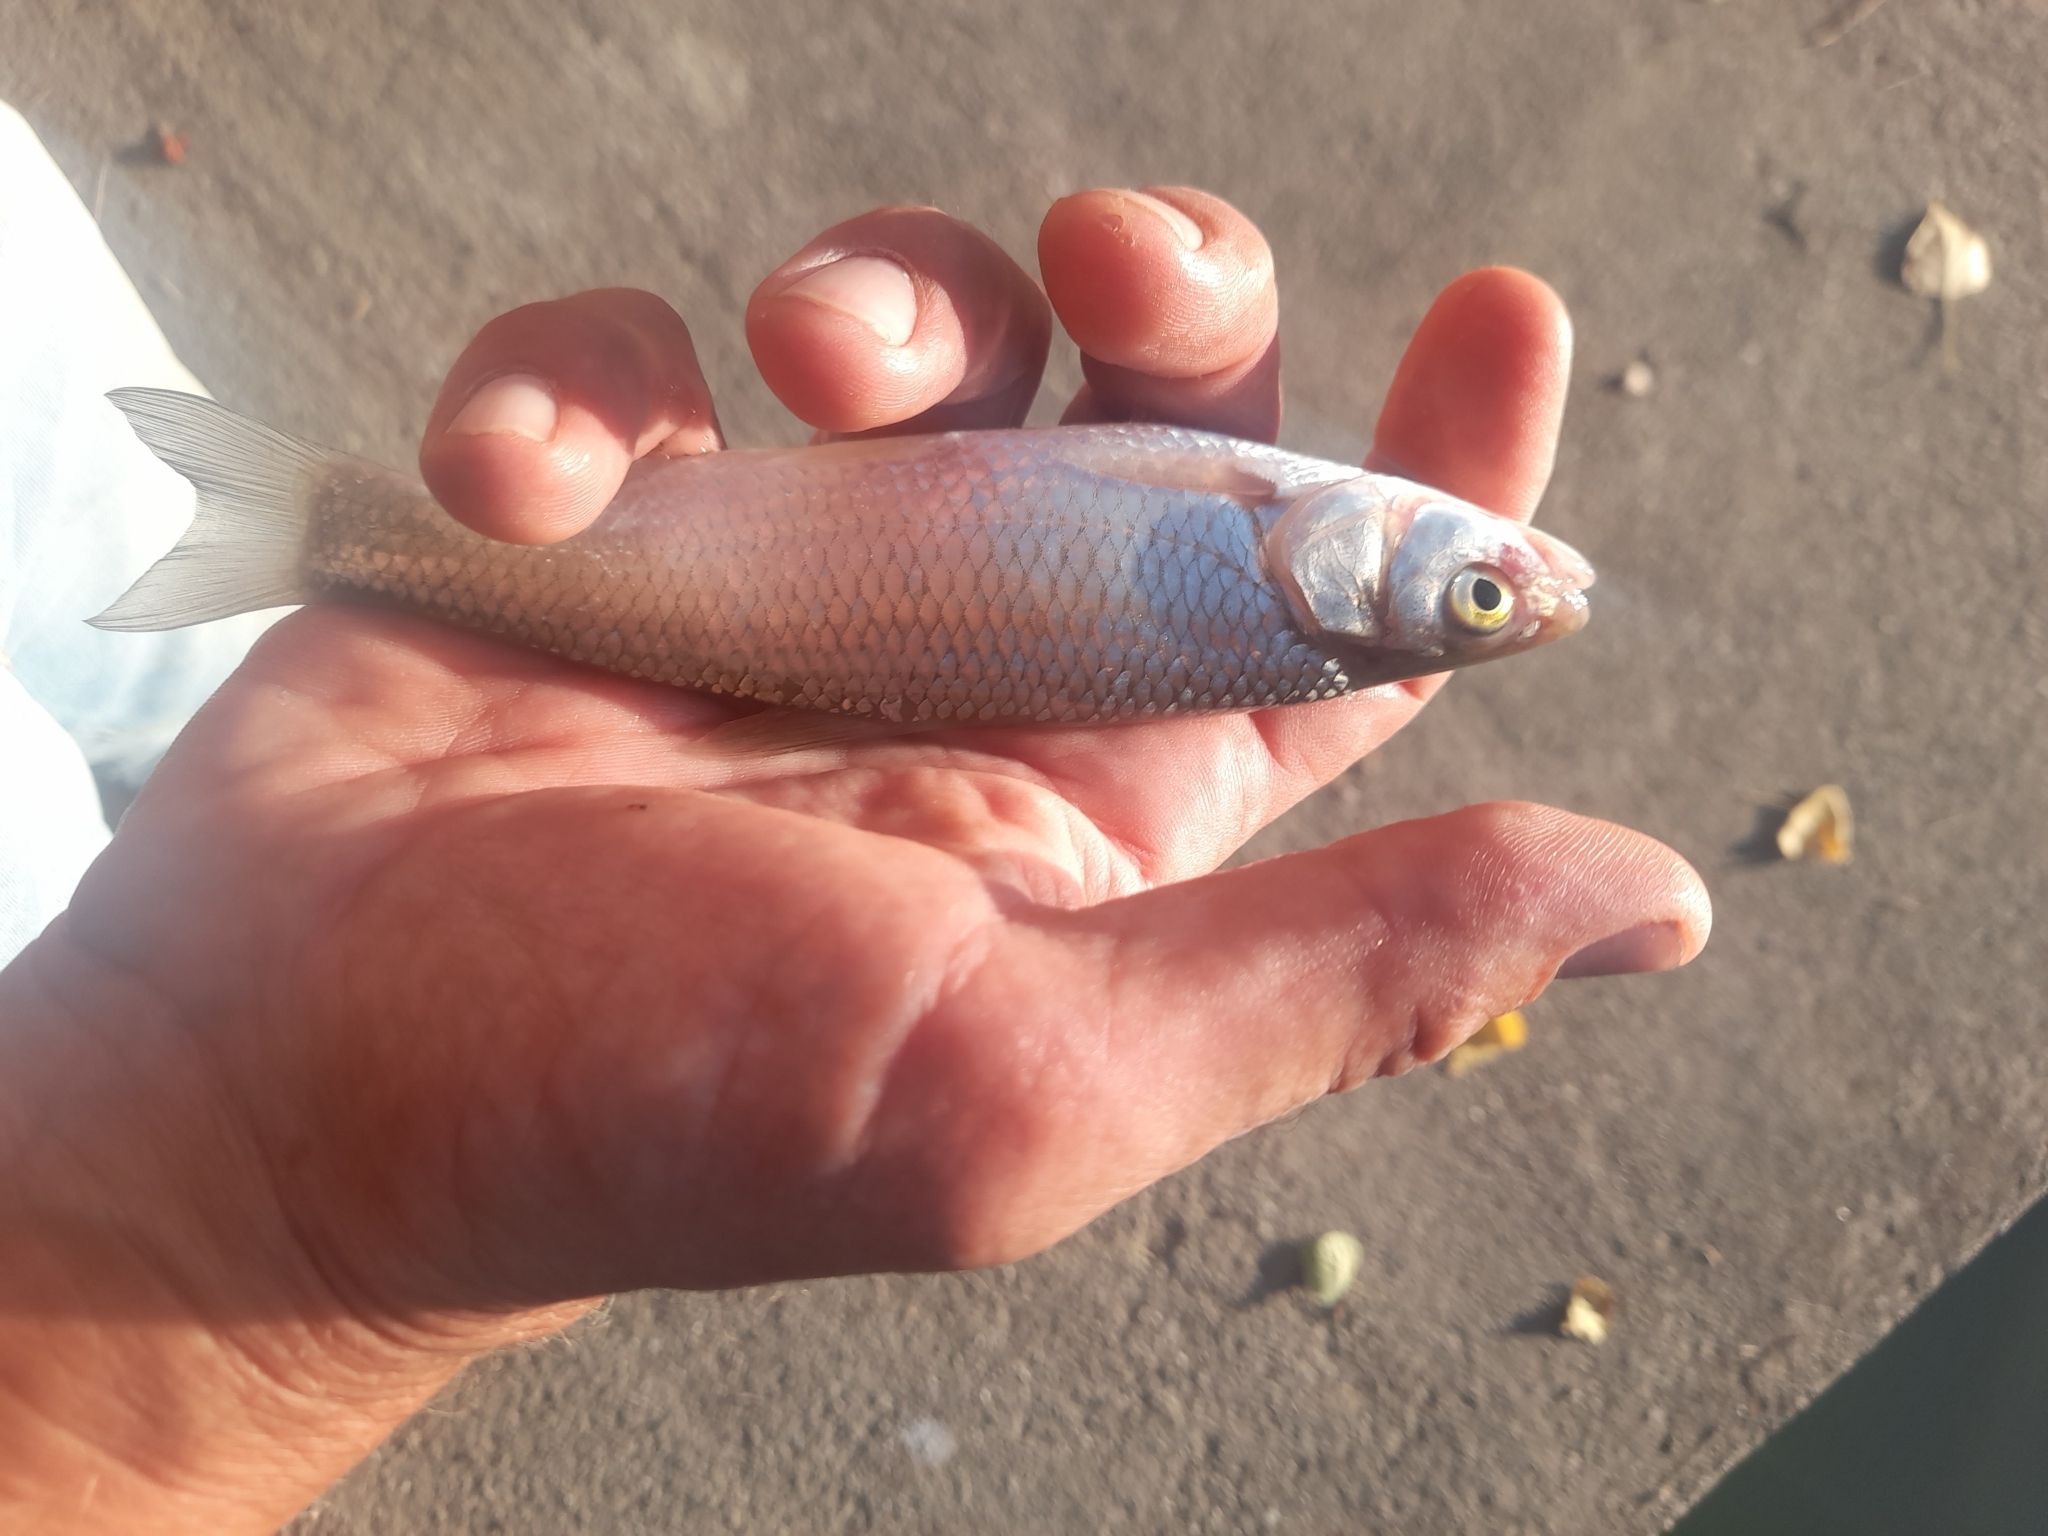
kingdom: Animalia
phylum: Chordata
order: Cypriniformes
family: Cyprinidae
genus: Squalius
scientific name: Squalius squalus
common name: Italian chub
